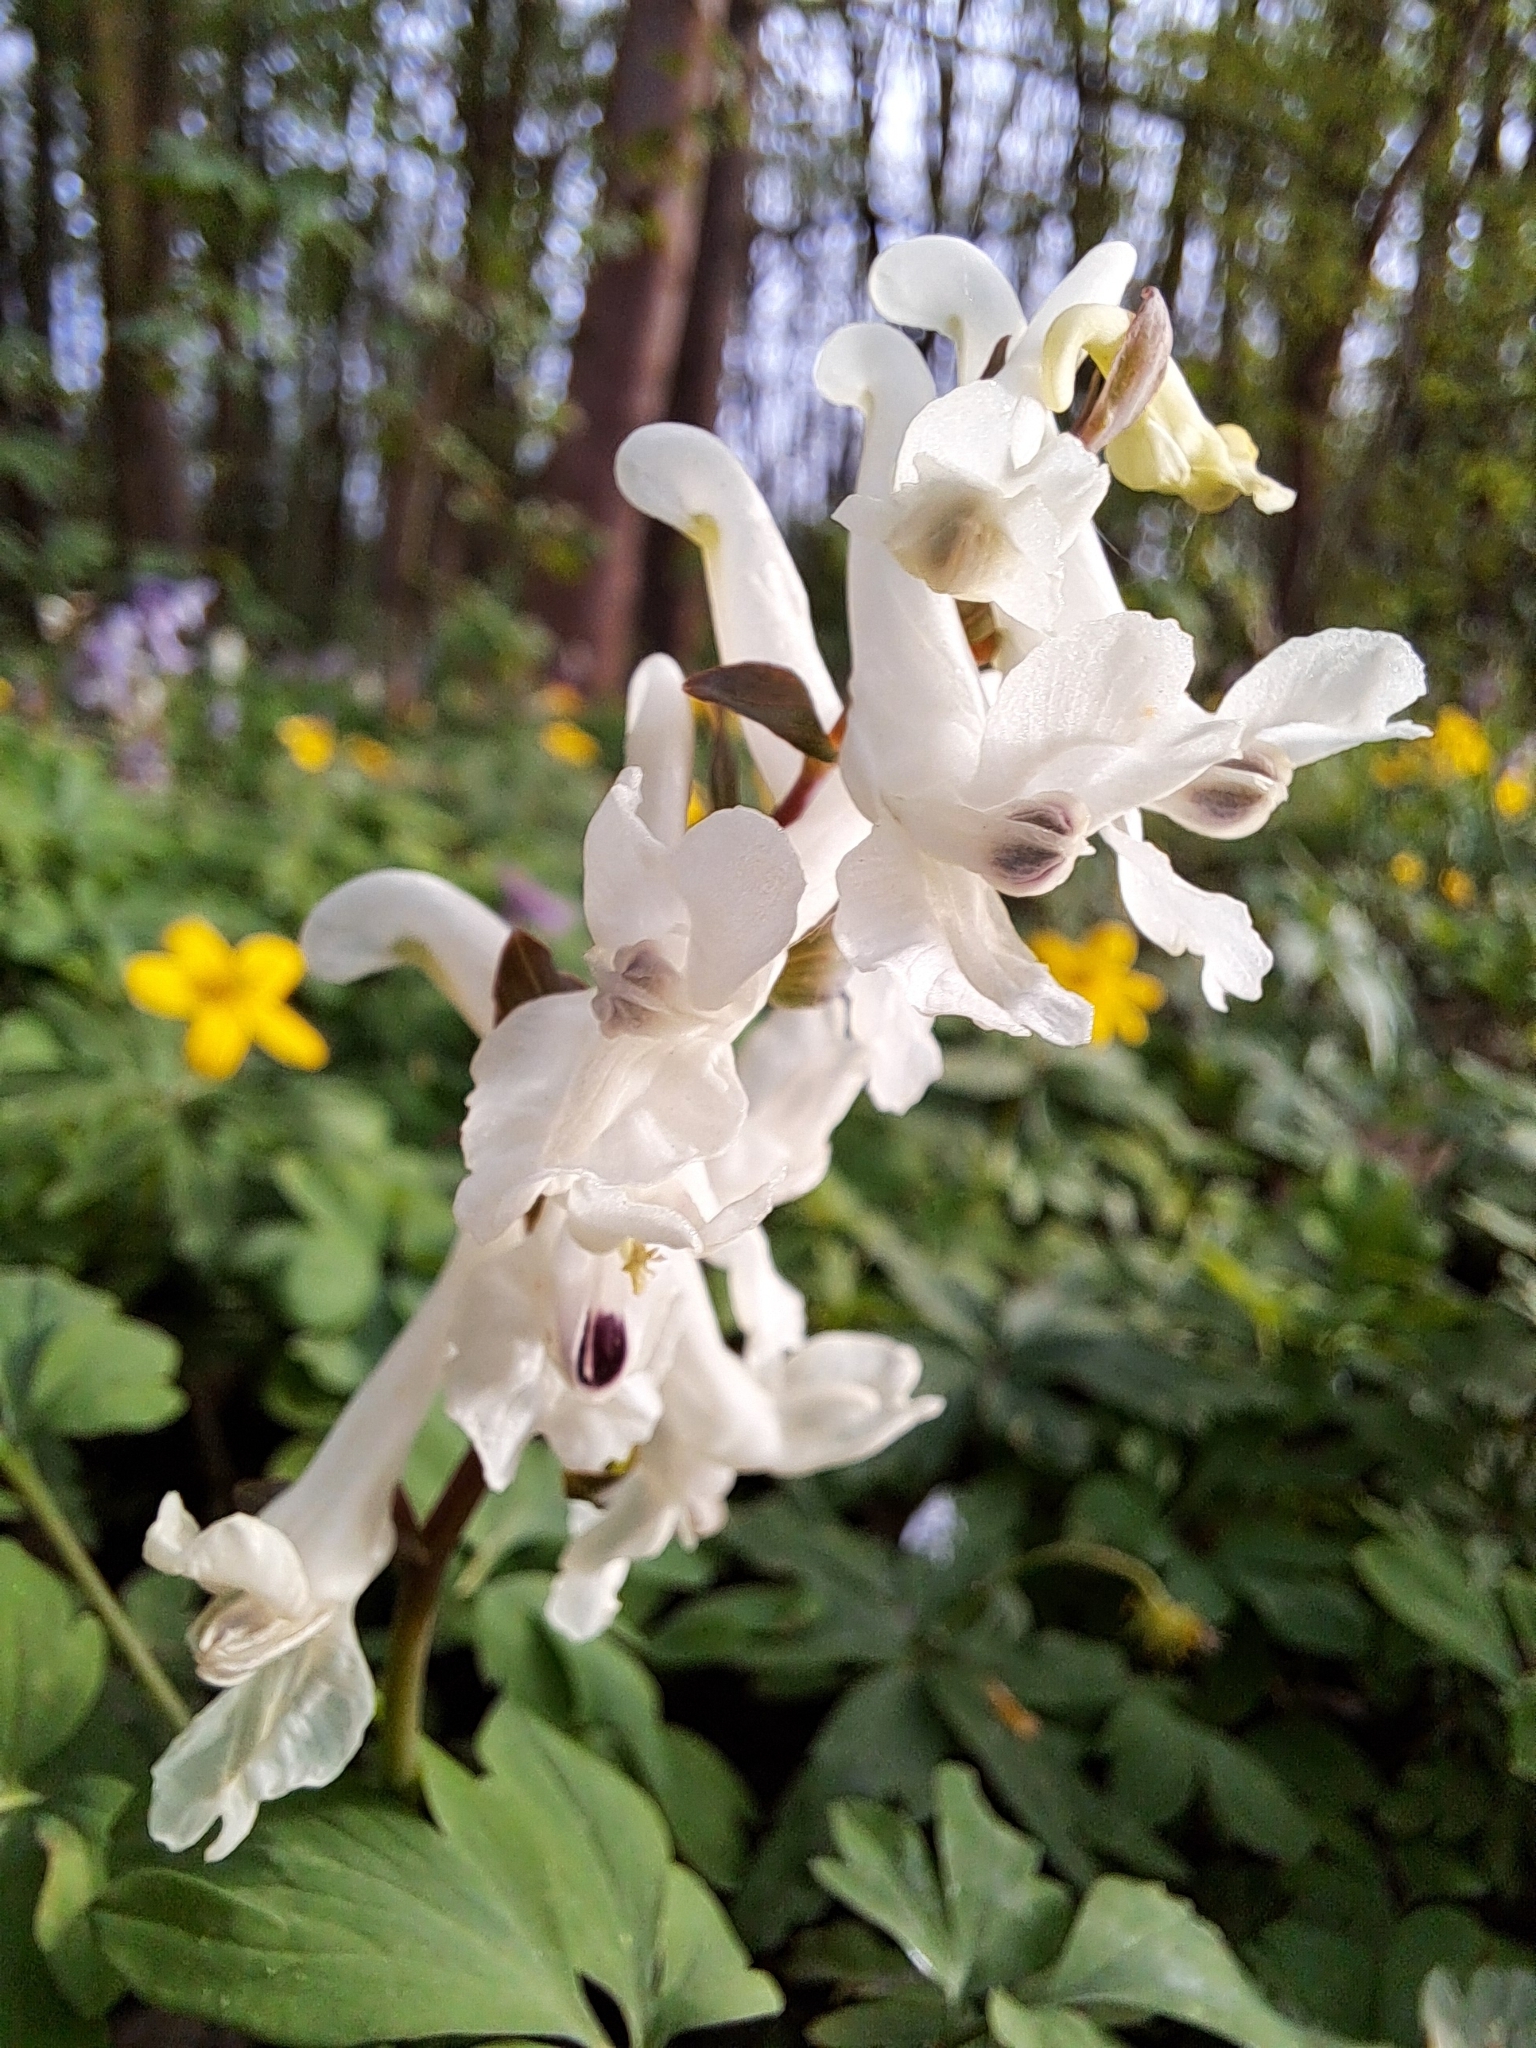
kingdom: Plantae
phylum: Tracheophyta
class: Magnoliopsida
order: Ranunculales
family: Papaveraceae
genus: Corydalis
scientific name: Corydalis cava
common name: Hollowroot
